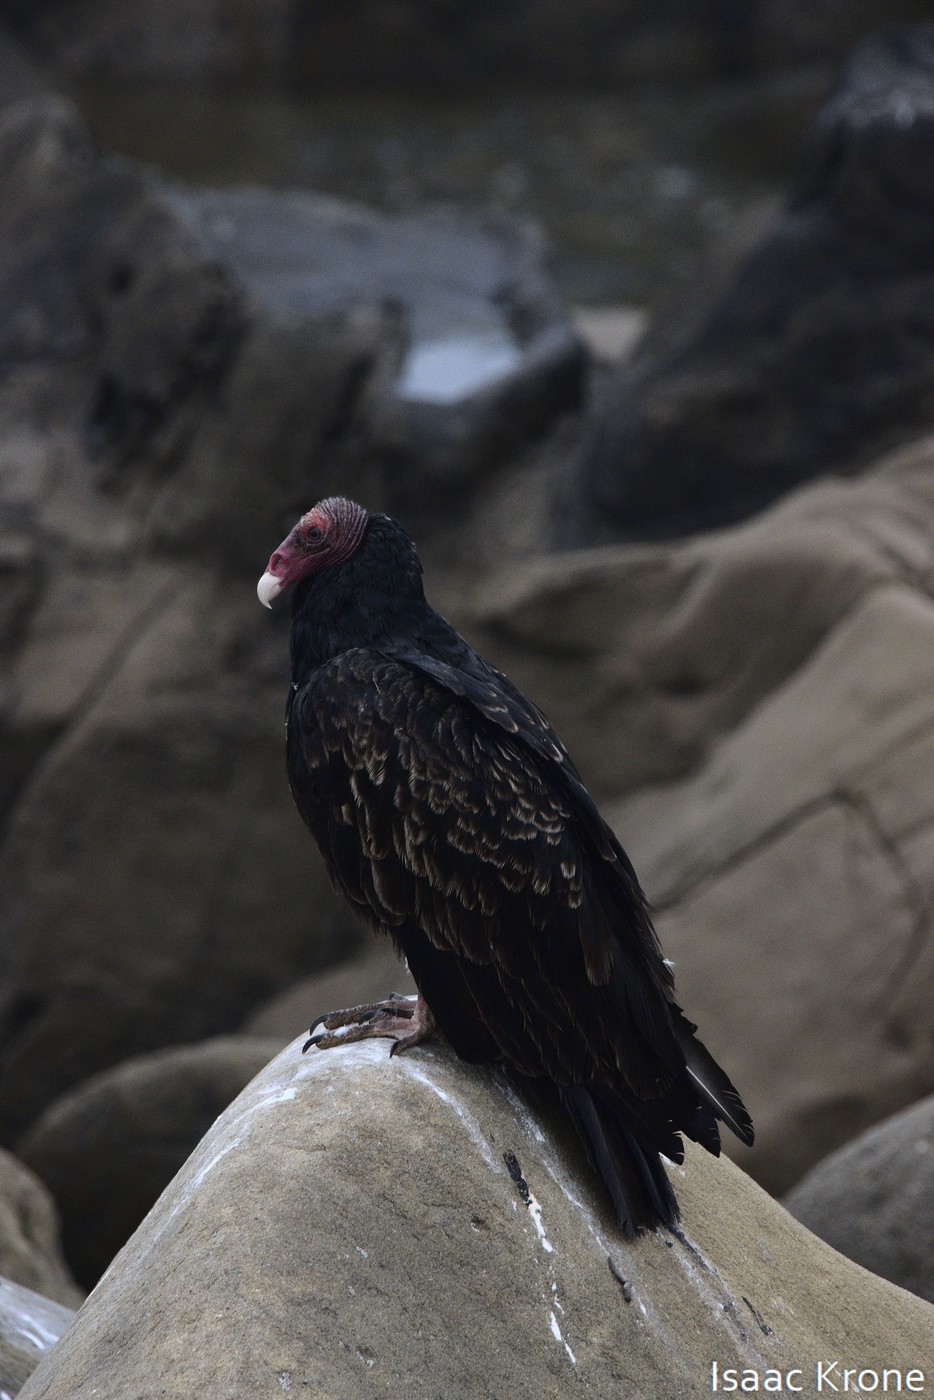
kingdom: Animalia
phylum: Chordata
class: Aves
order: Accipitriformes
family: Cathartidae
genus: Cathartes
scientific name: Cathartes aura
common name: Turkey vulture
